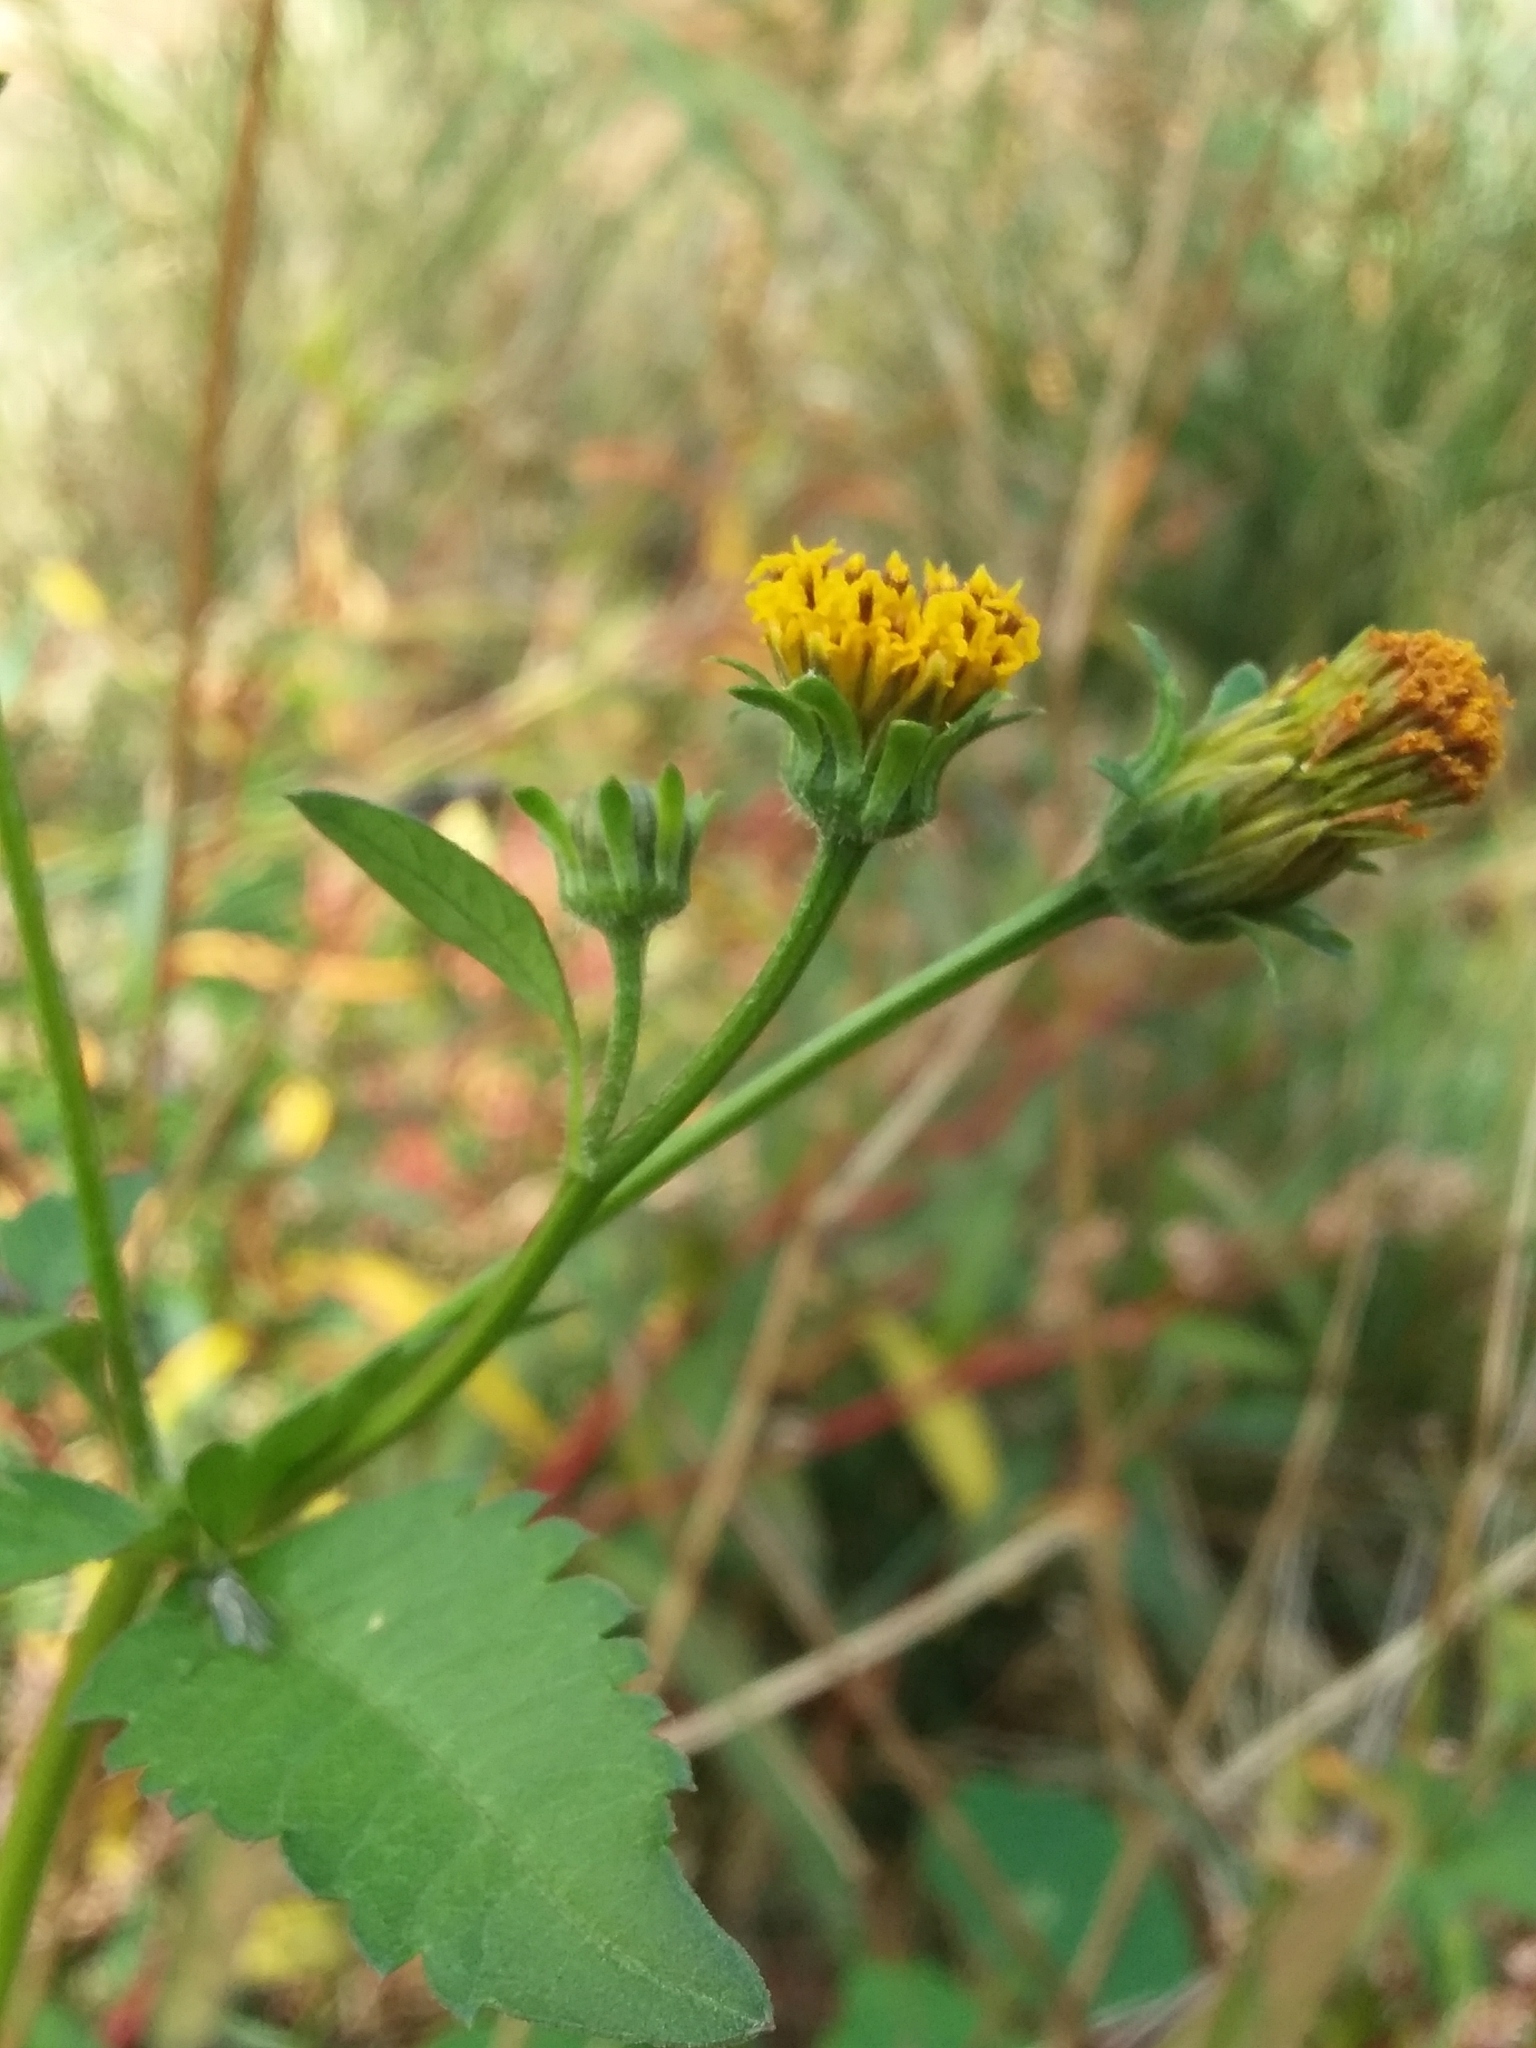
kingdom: Plantae
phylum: Tracheophyta
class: Magnoliopsida
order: Asterales
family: Asteraceae
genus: Bidens
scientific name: Bidens pilosa
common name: Black-jack
